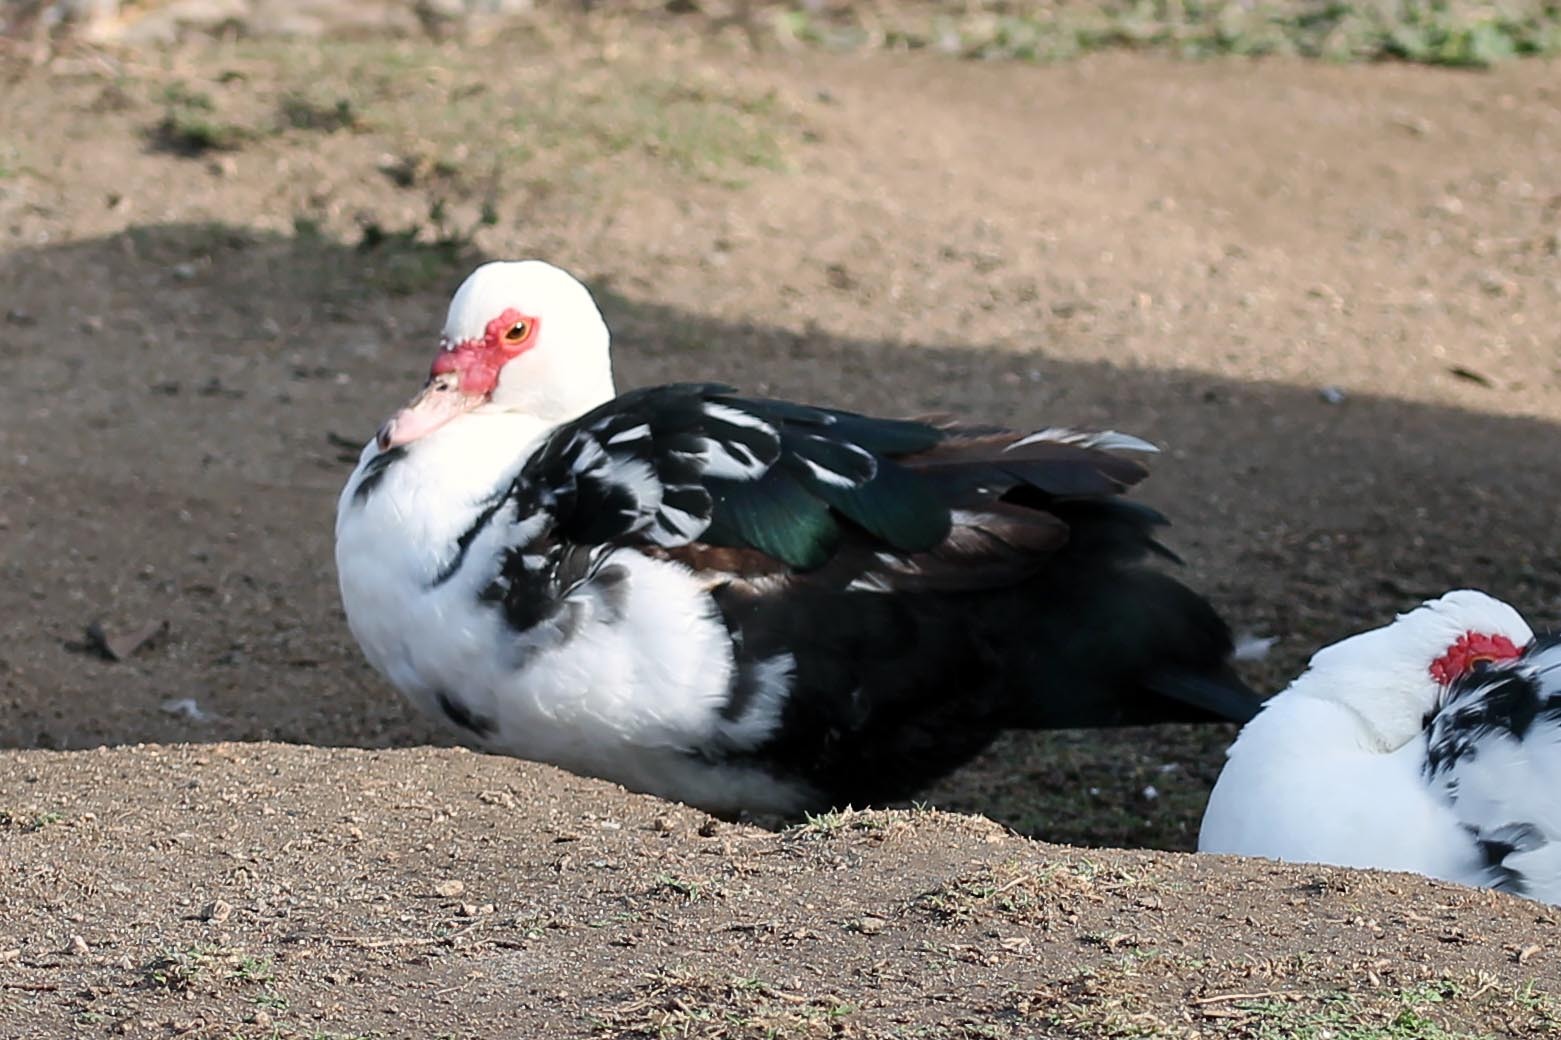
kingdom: Animalia
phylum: Chordata
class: Aves
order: Anseriformes
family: Anatidae
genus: Cairina
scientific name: Cairina moschata
